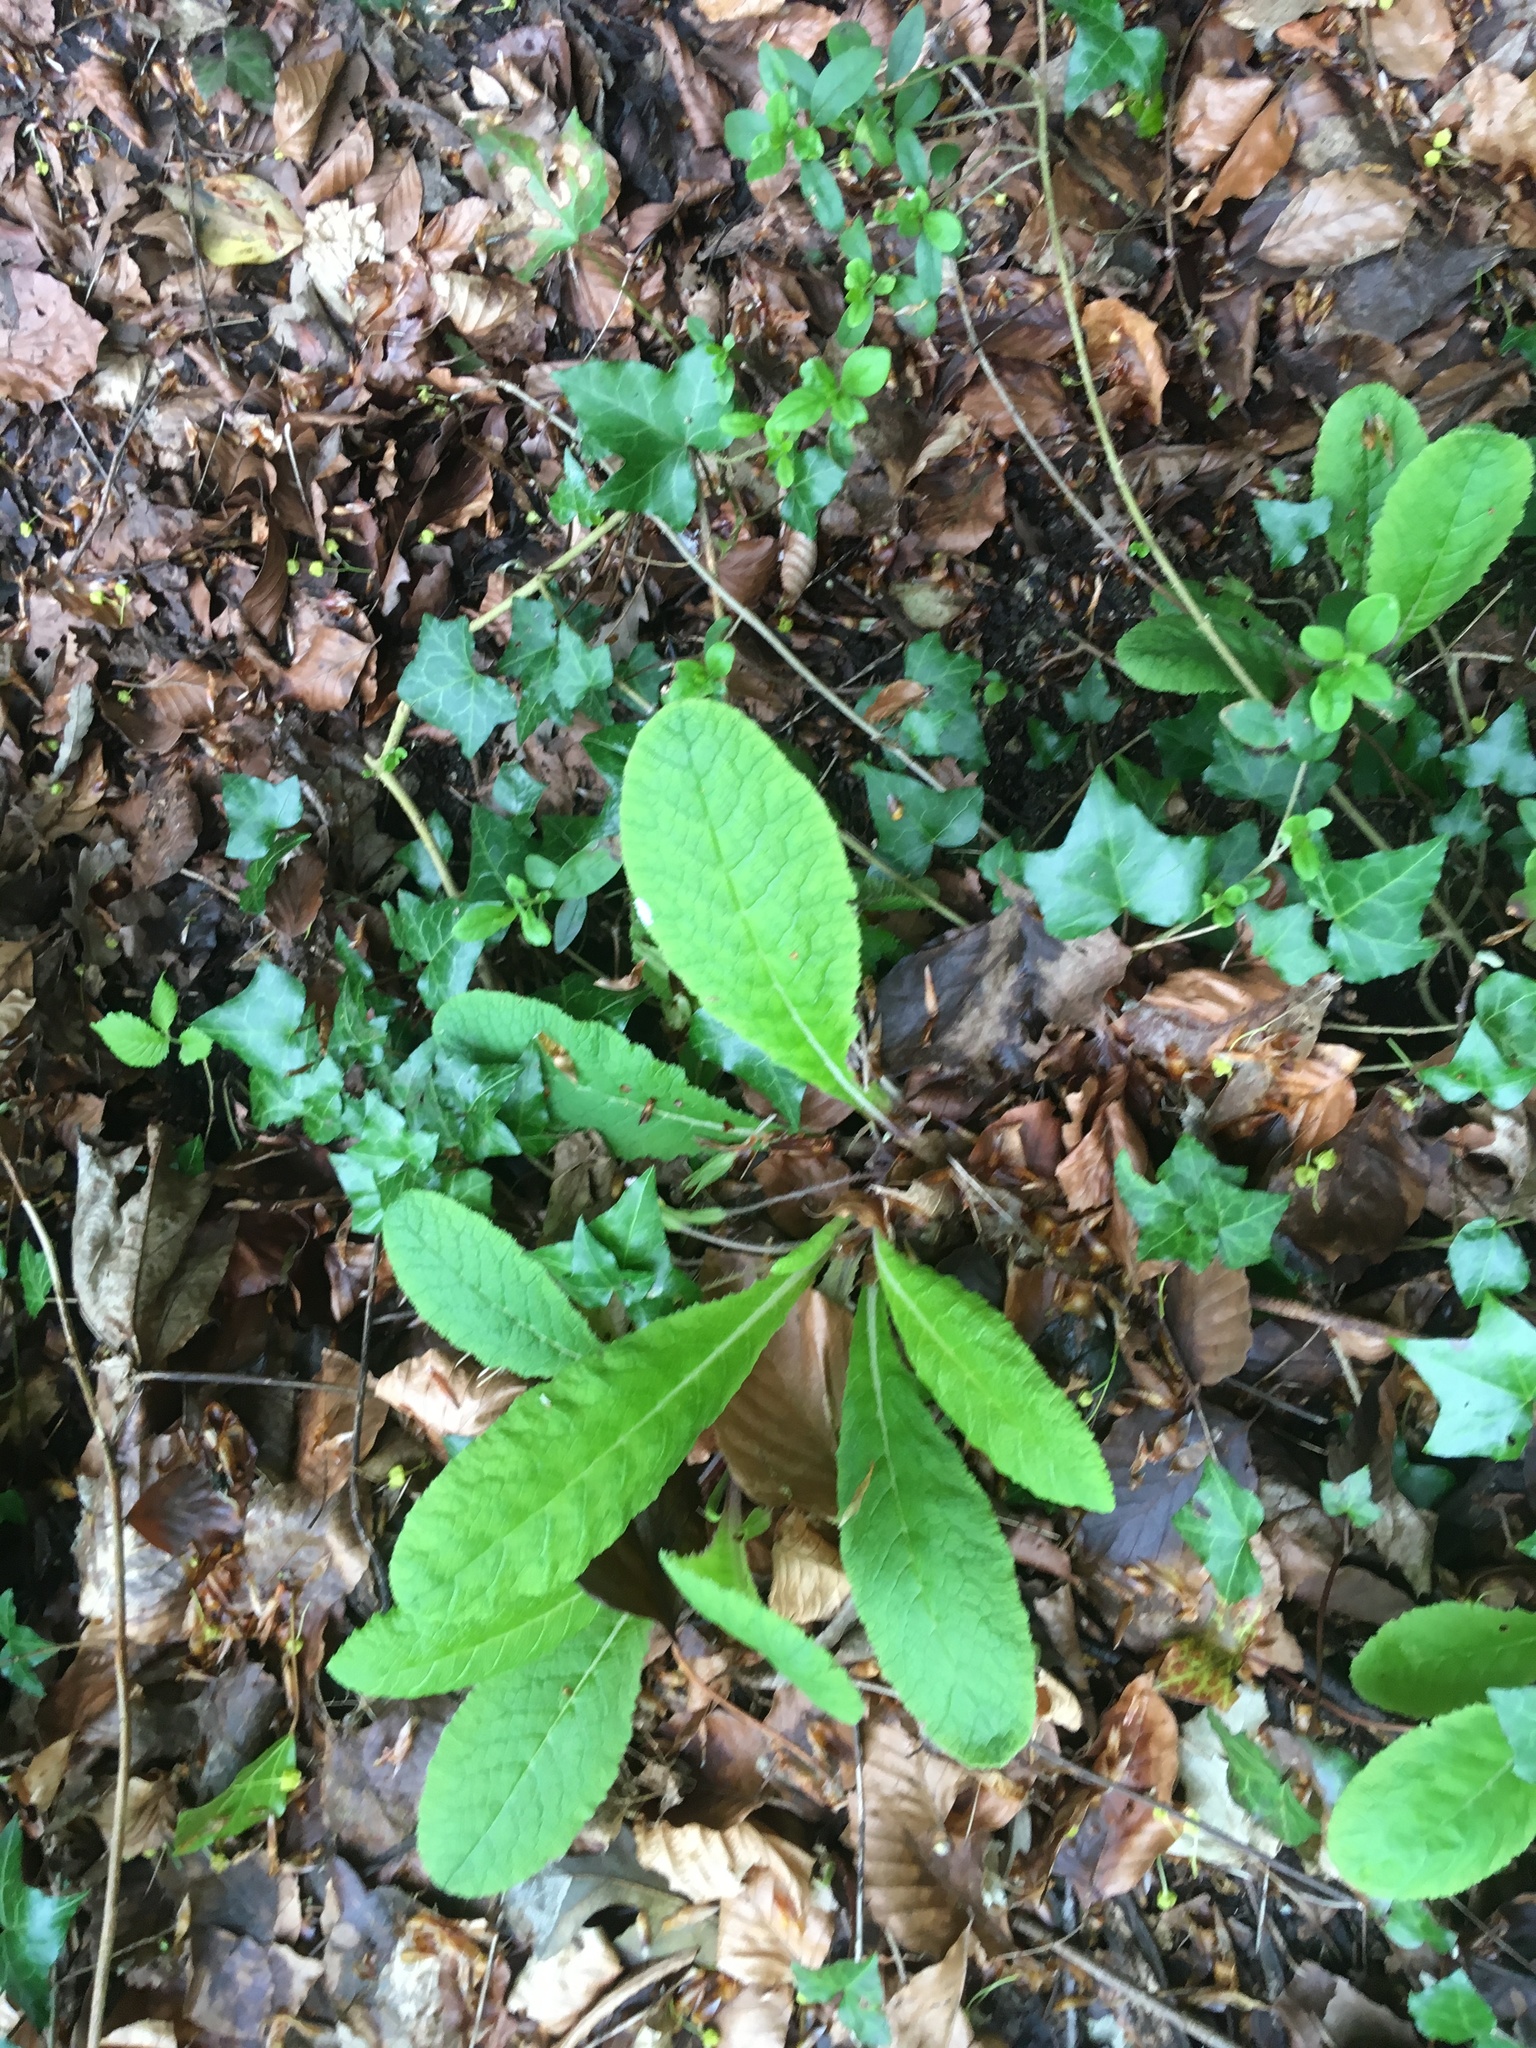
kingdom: Plantae
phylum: Tracheophyta
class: Magnoliopsida
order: Ericales
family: Primulaceae
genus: Primula
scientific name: Primula vulgaris
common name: Primrose
